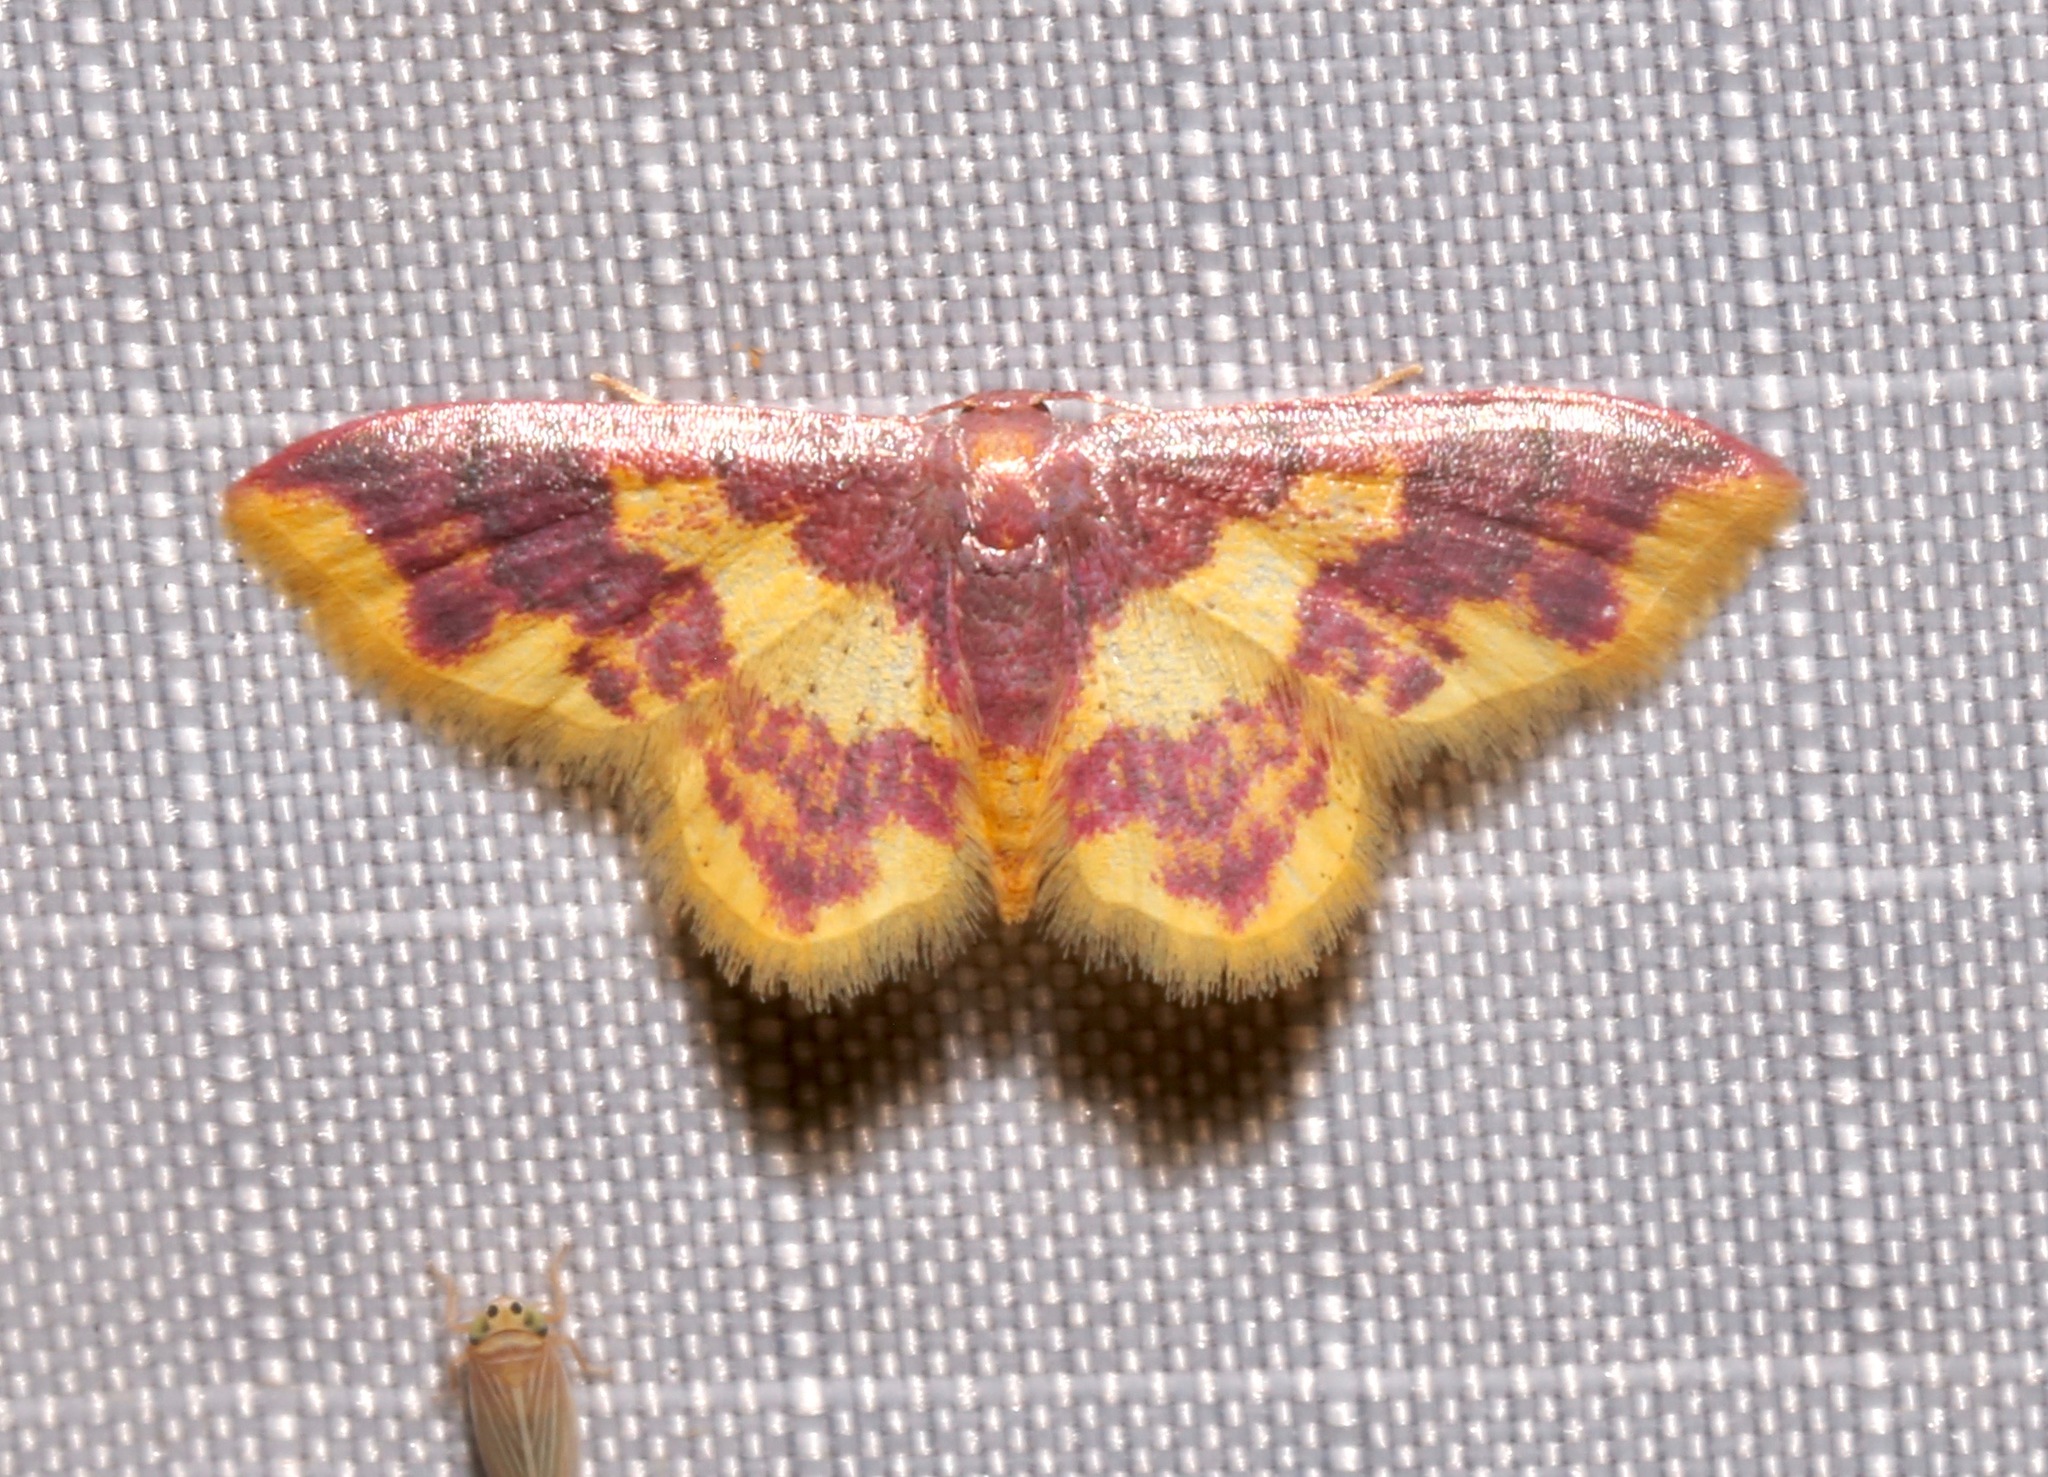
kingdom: Animalia
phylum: Arthropoda
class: Insecta
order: Lepidoptera
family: Geometridae
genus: Lophosis
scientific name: Lophosis labeculata
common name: Stained lophosis moth
